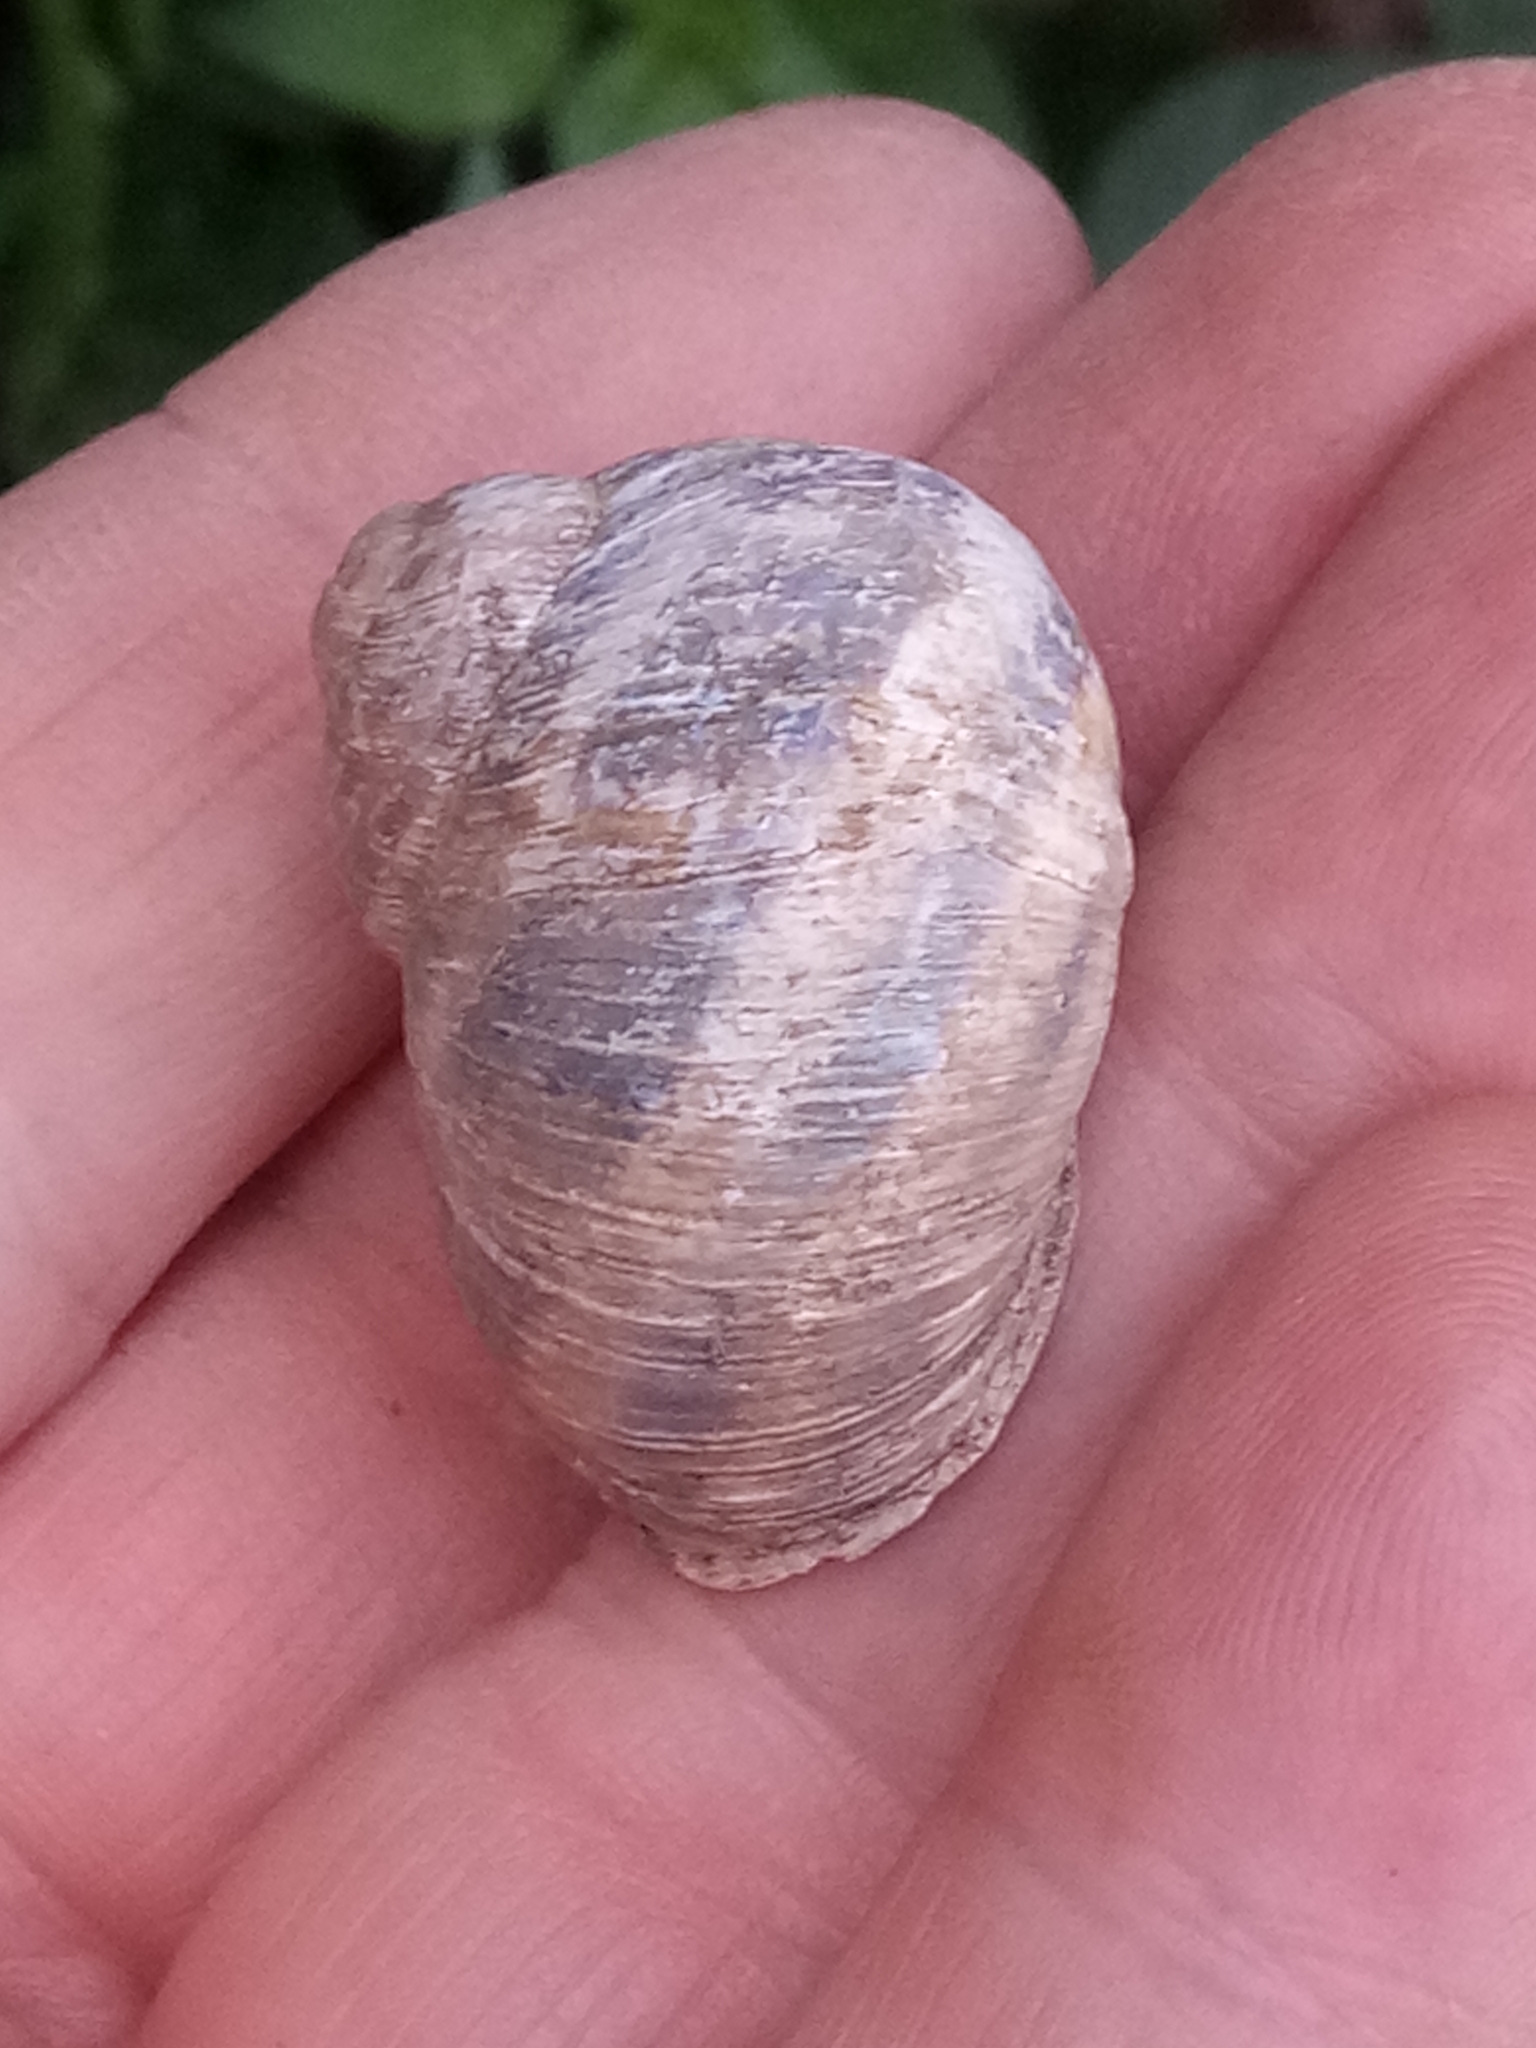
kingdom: Animalia
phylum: Mollusca
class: Gastropoda
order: Stylommatophora
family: Helicidae
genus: Cornu
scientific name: Cornu aspersum
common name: Brown garden snail
